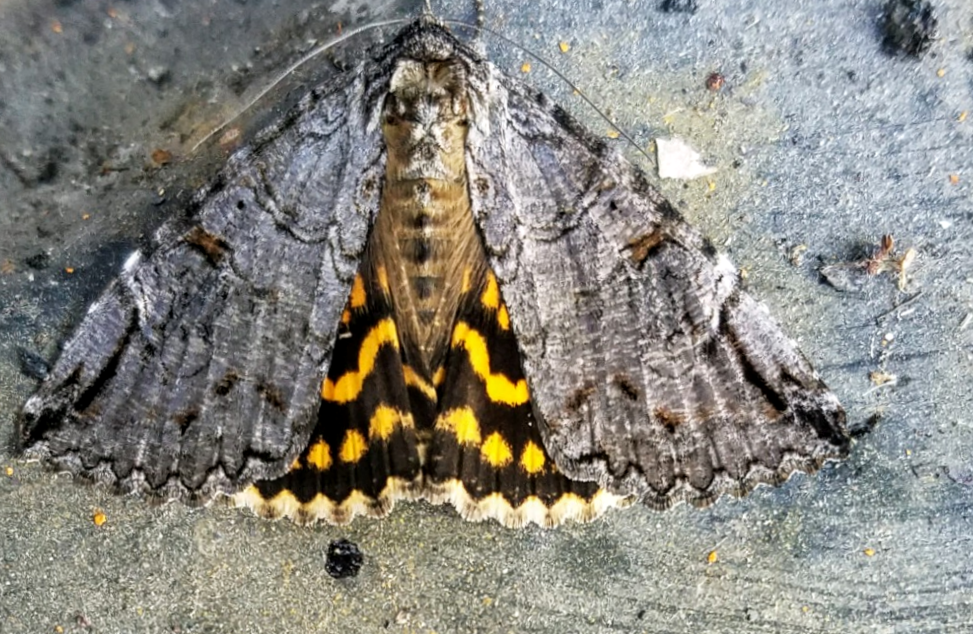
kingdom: Animalia
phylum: Arthropoda
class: Insecta
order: Lepidoptera
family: Erebidae
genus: Euparthenos
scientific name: Euparthenos nubilis
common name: Locust underwing
